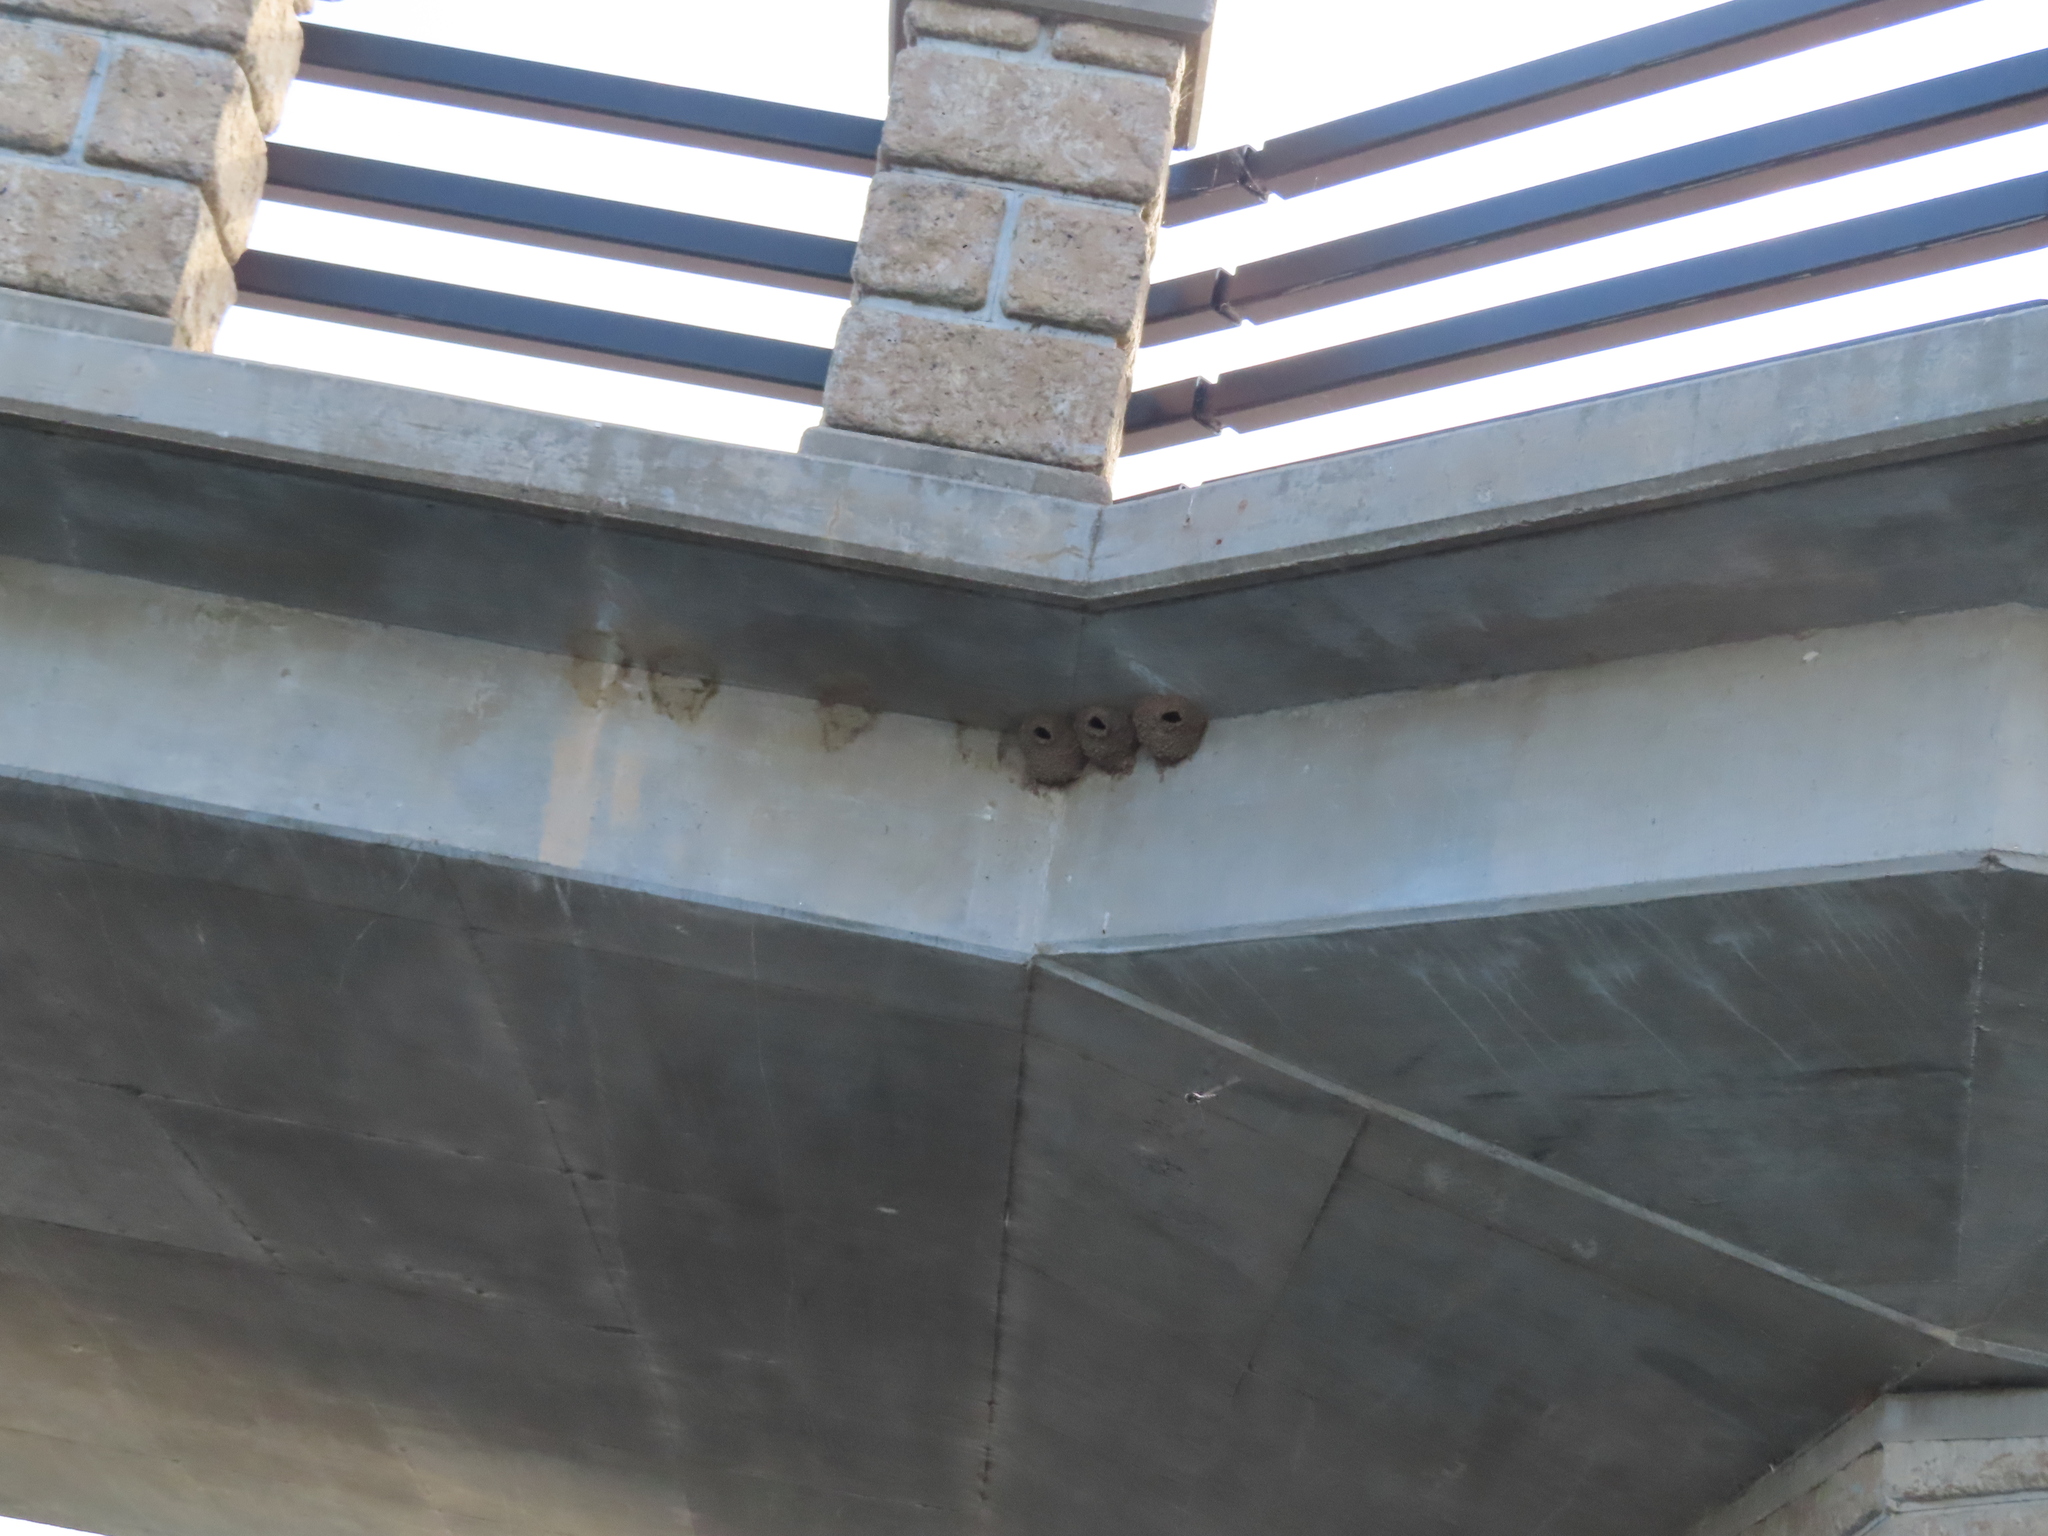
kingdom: Animalia
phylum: Chordata
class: Aves
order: Passeriformes
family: Hirundinidae
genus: Petrochelidon
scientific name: Petrochelidon pyrrhonota
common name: American cliff swallow
